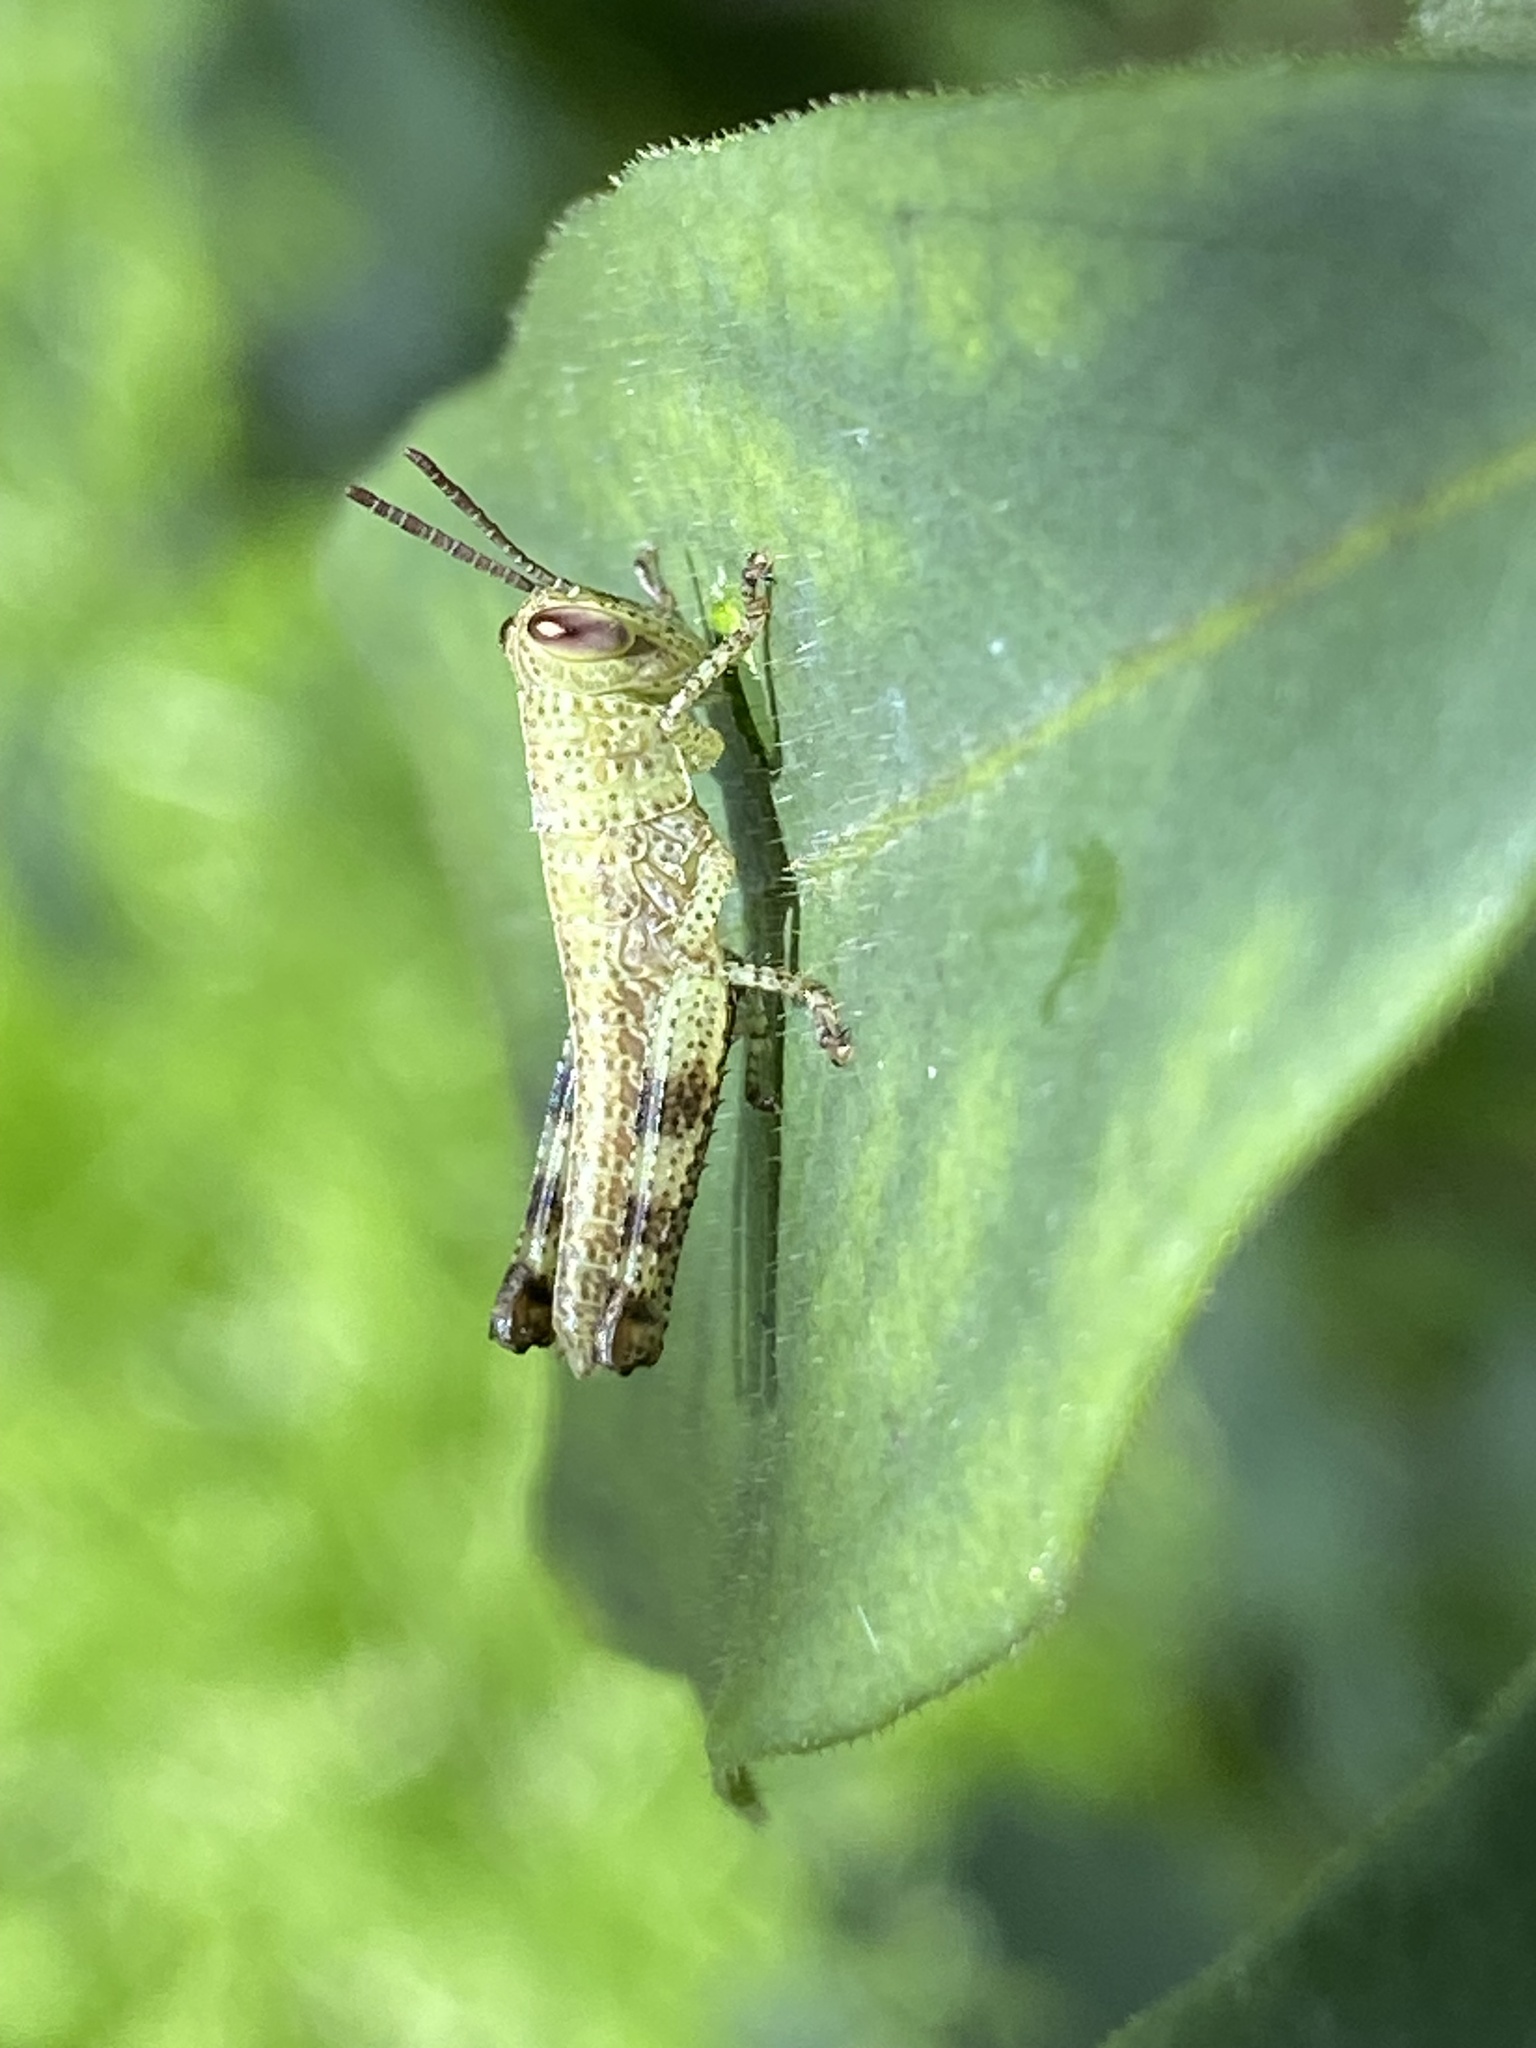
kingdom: Animalia
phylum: Arthropoda
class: Insecta
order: Orthoptera
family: Acrididae
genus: Valanga
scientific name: Valanga irregularis
